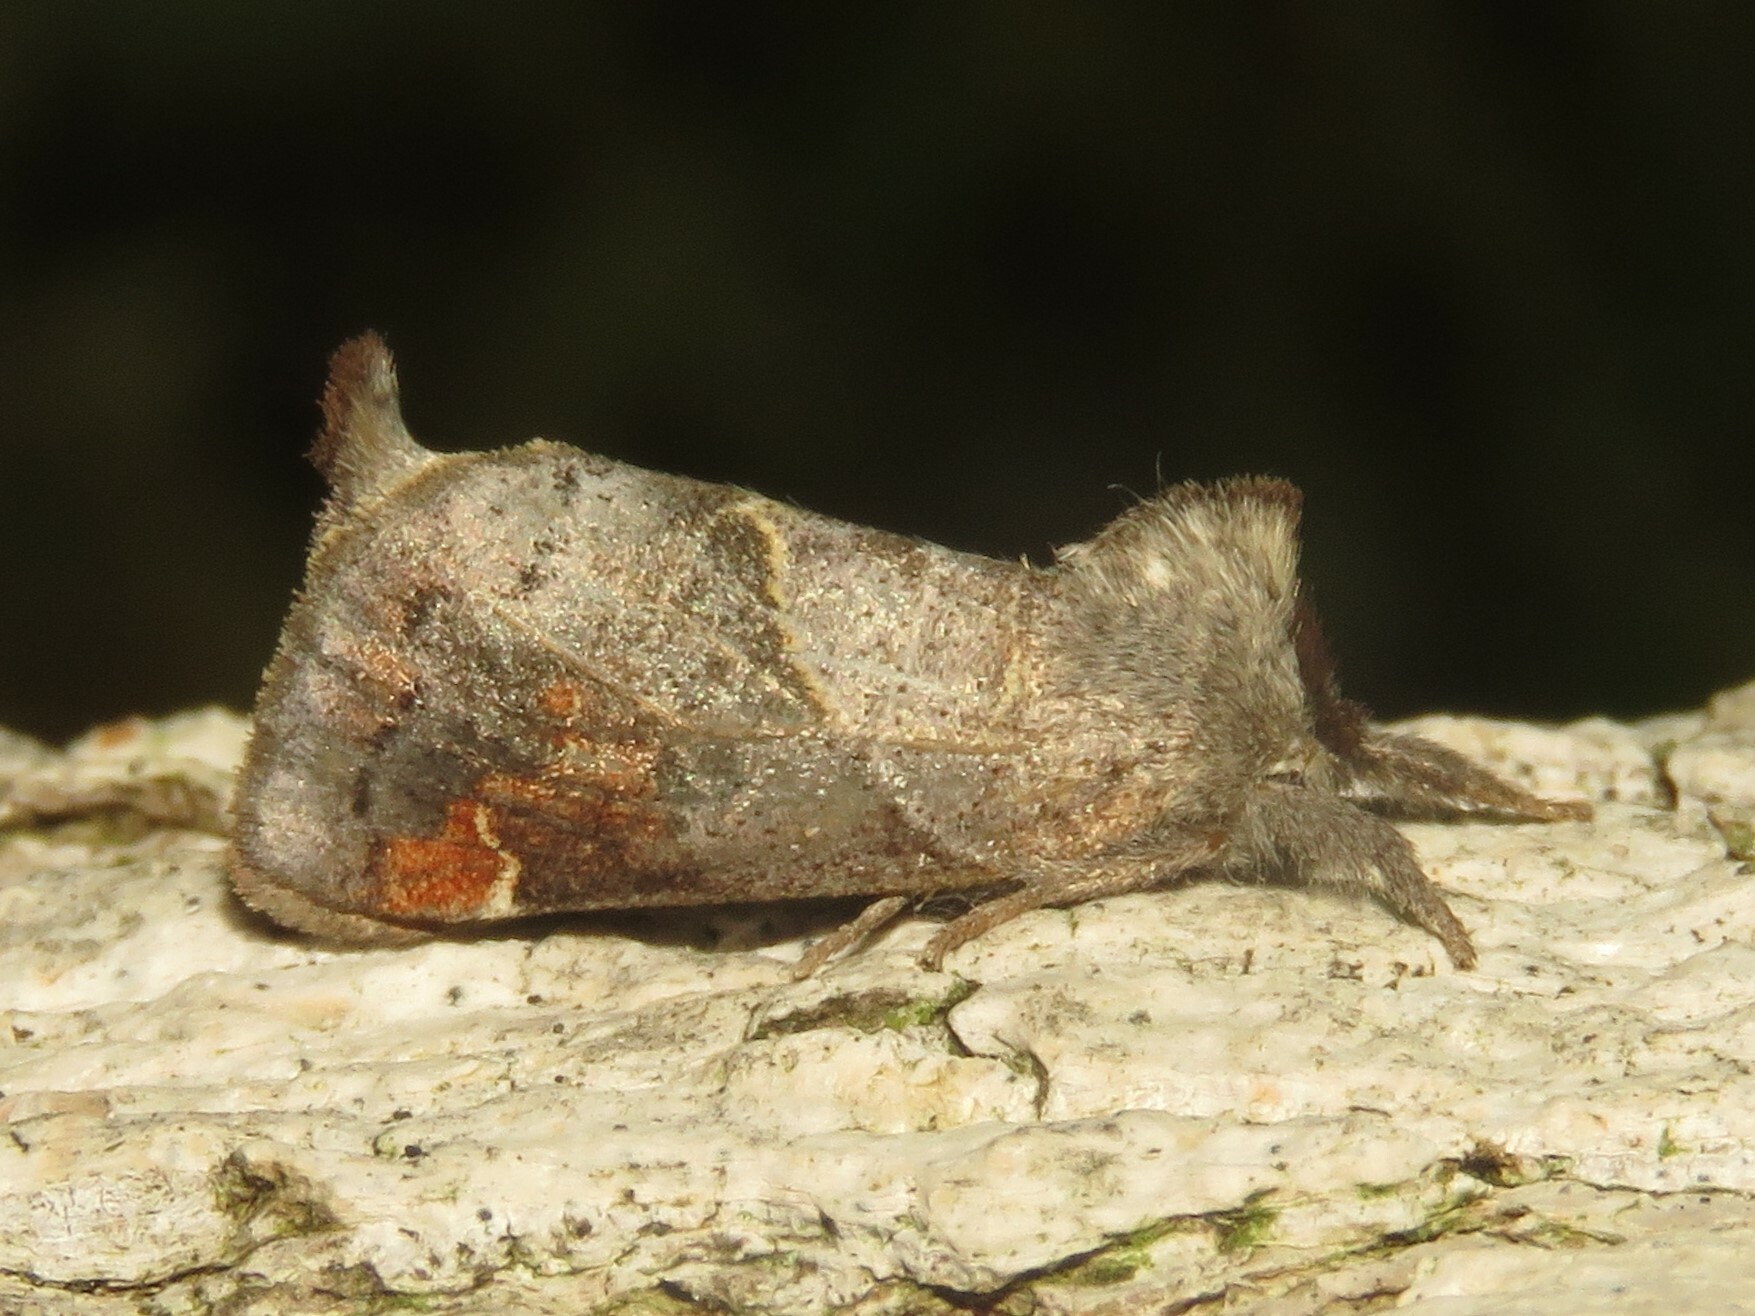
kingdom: Animalia
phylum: Arthropoda
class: Insecta
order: Lepidoptera
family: Notodontidae
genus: Clostera
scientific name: Clostera apicalis
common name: Apical prominent
